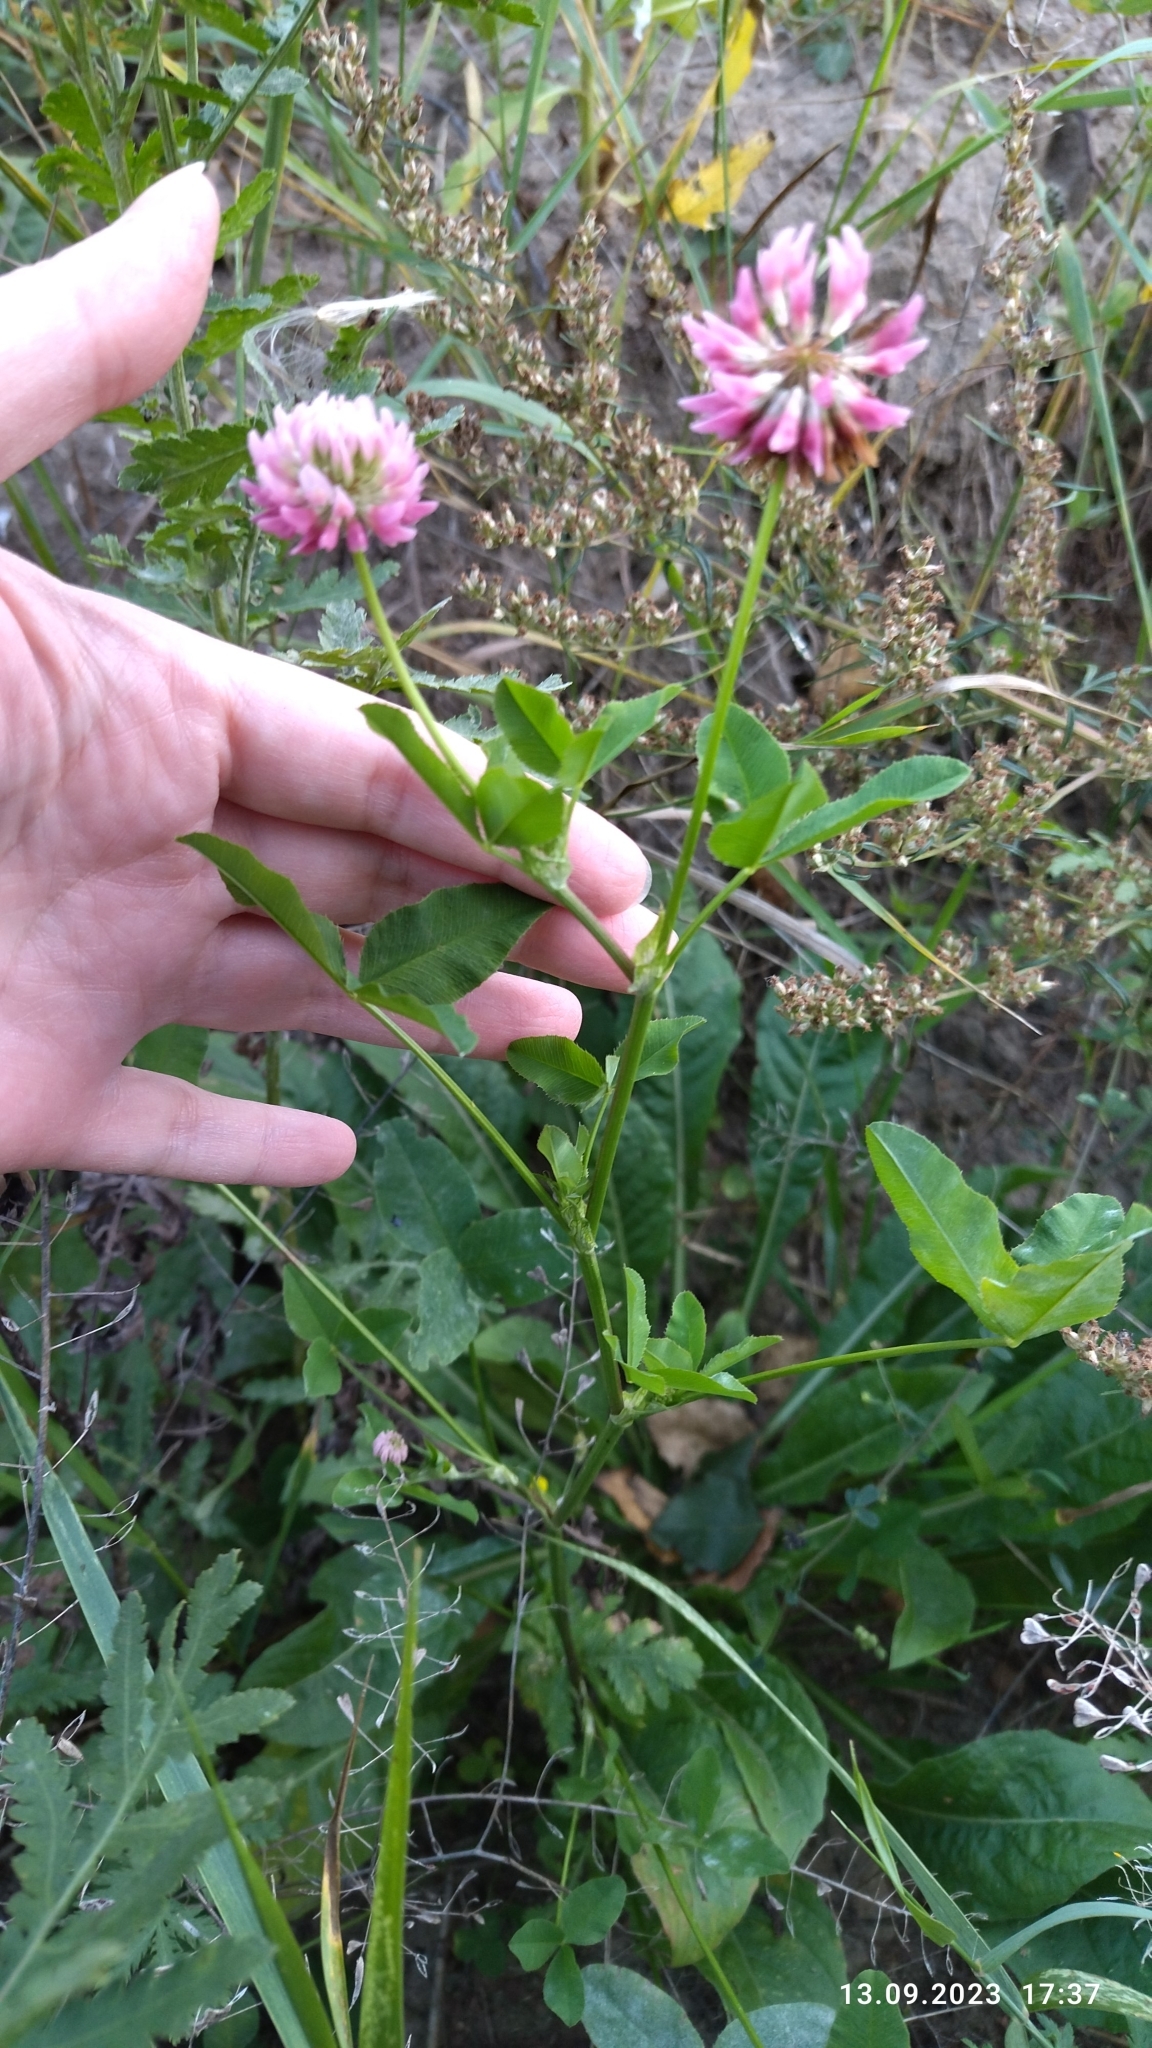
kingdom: Plantae
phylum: Tracheophyta
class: Magnoliopsida
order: Fabales
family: Fabaceae
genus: Trifolium
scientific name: Trifolium hybridum
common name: Alsike clover
